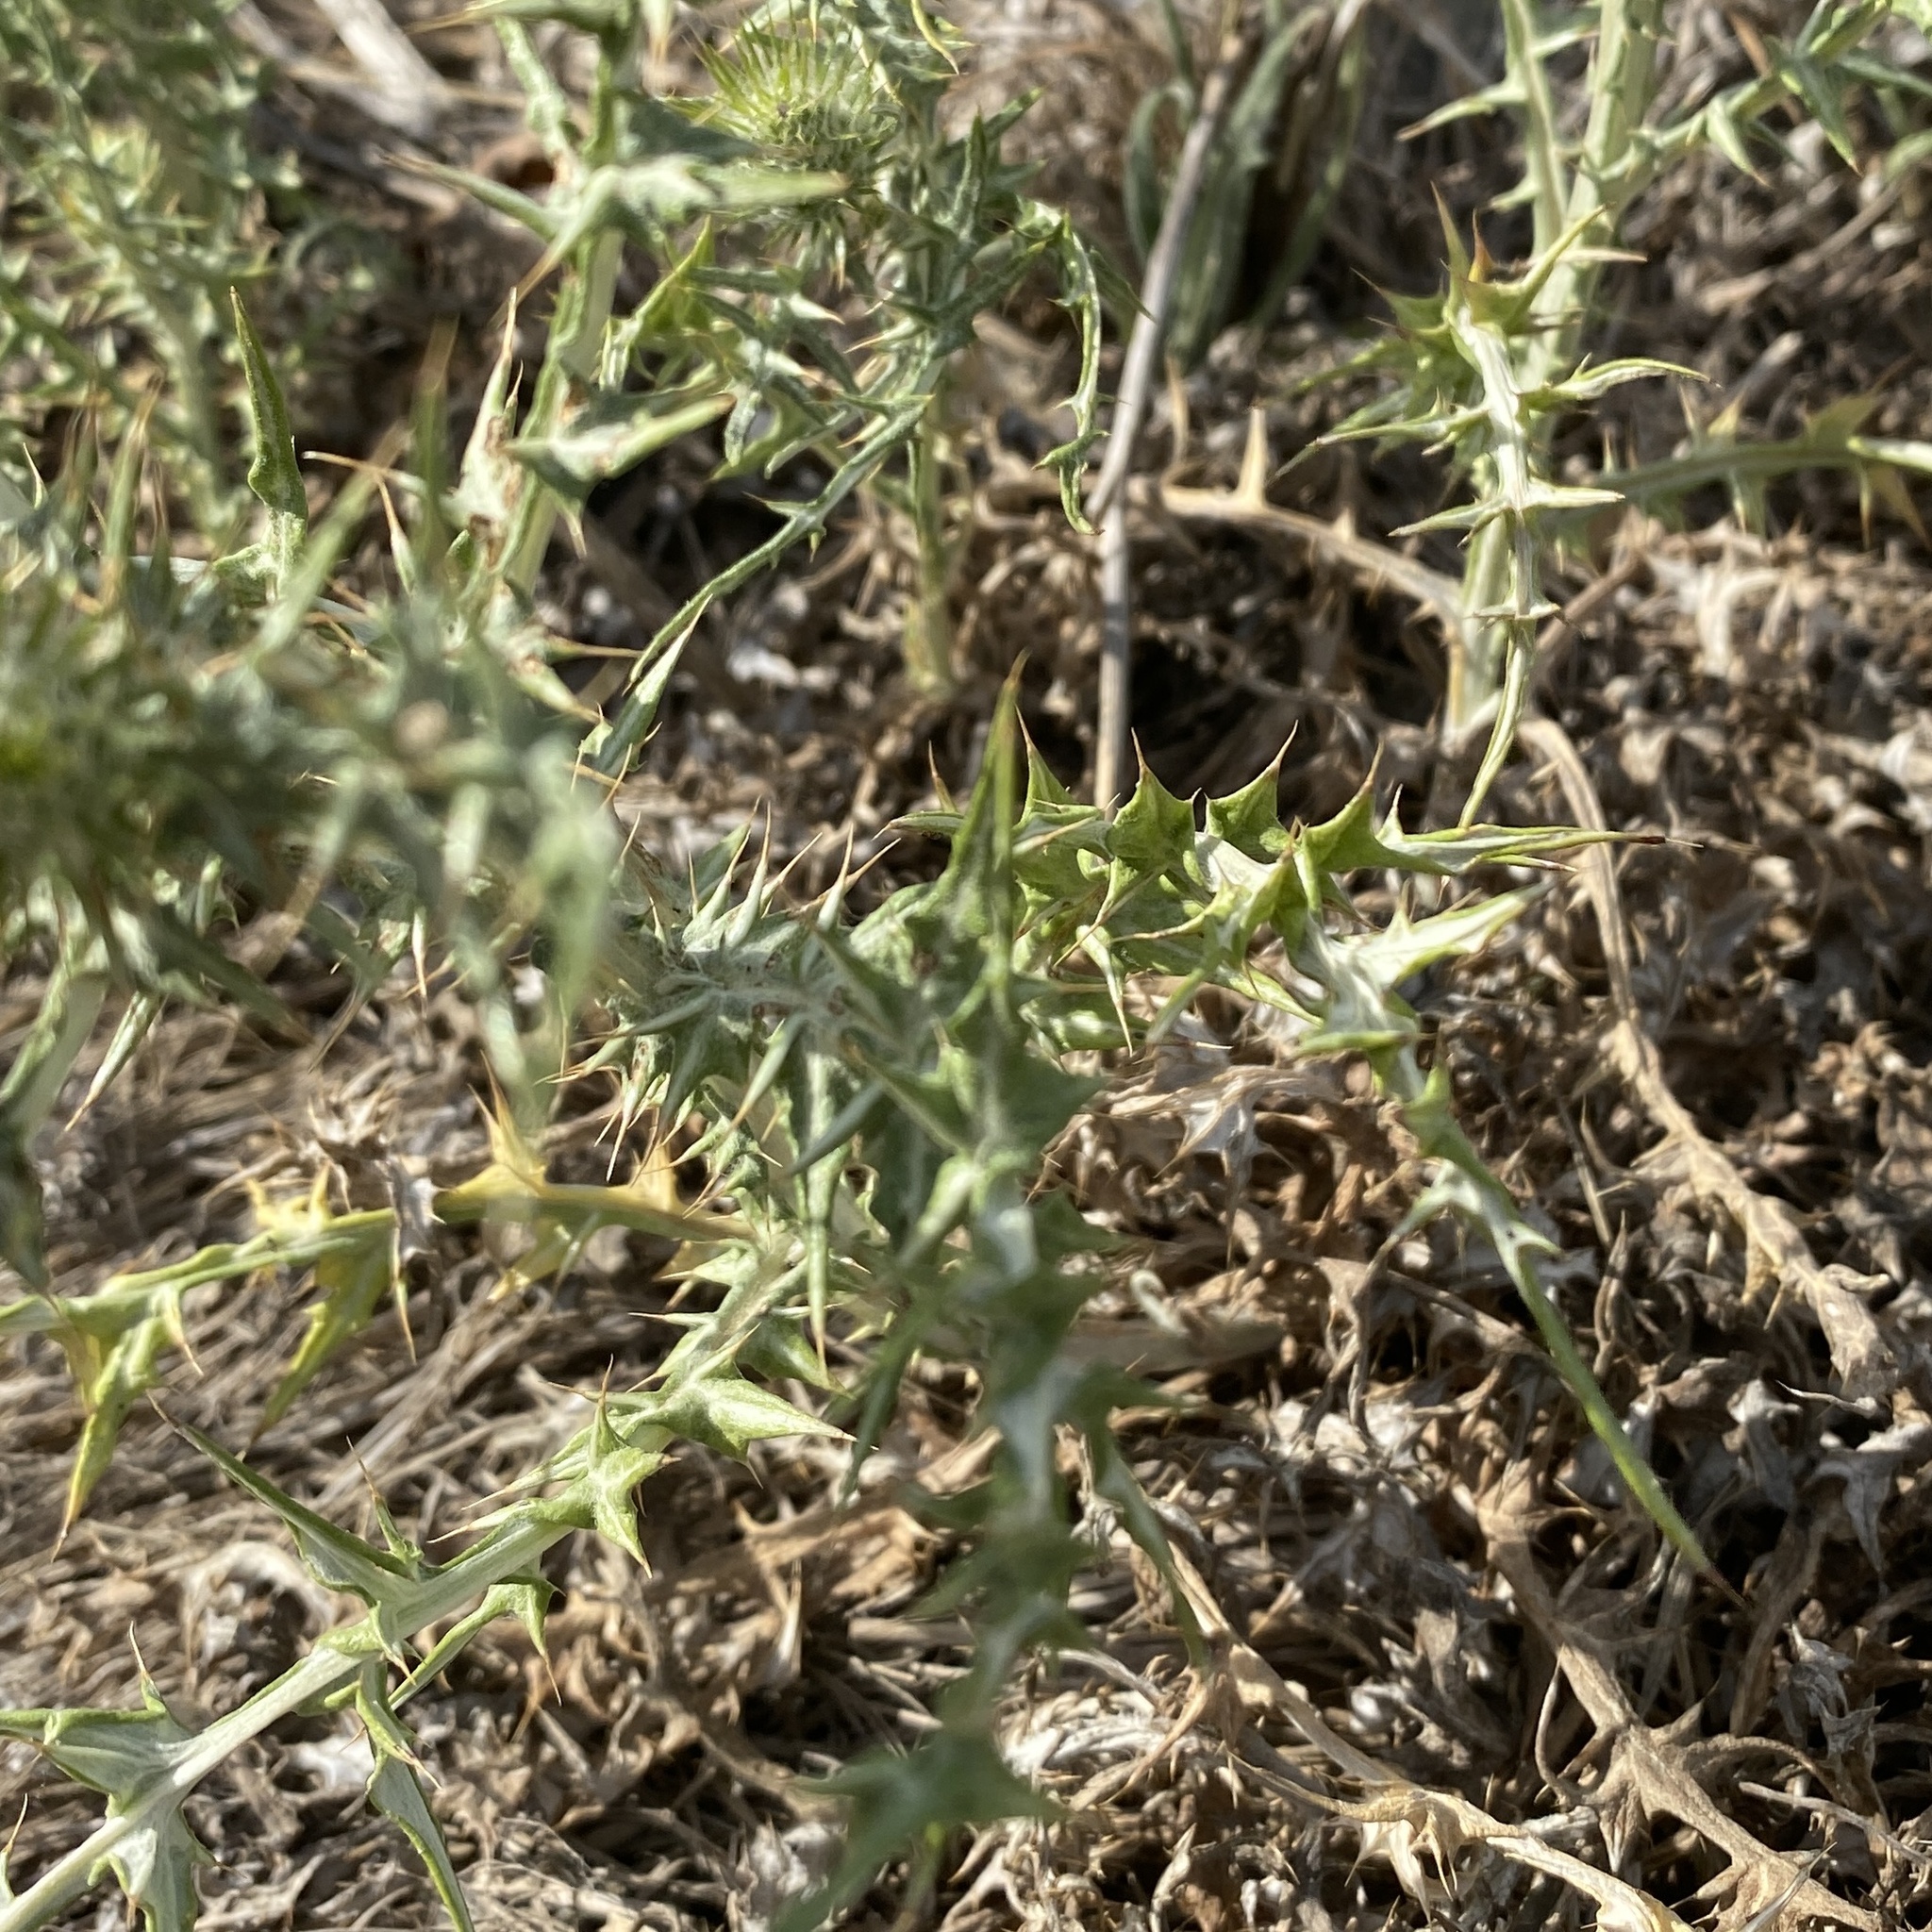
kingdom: Plantae
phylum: Tracheophyta
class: Magnoliopsida
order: Asterales
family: Asteraceae
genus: Galactites
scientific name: Galactites tomentosa
